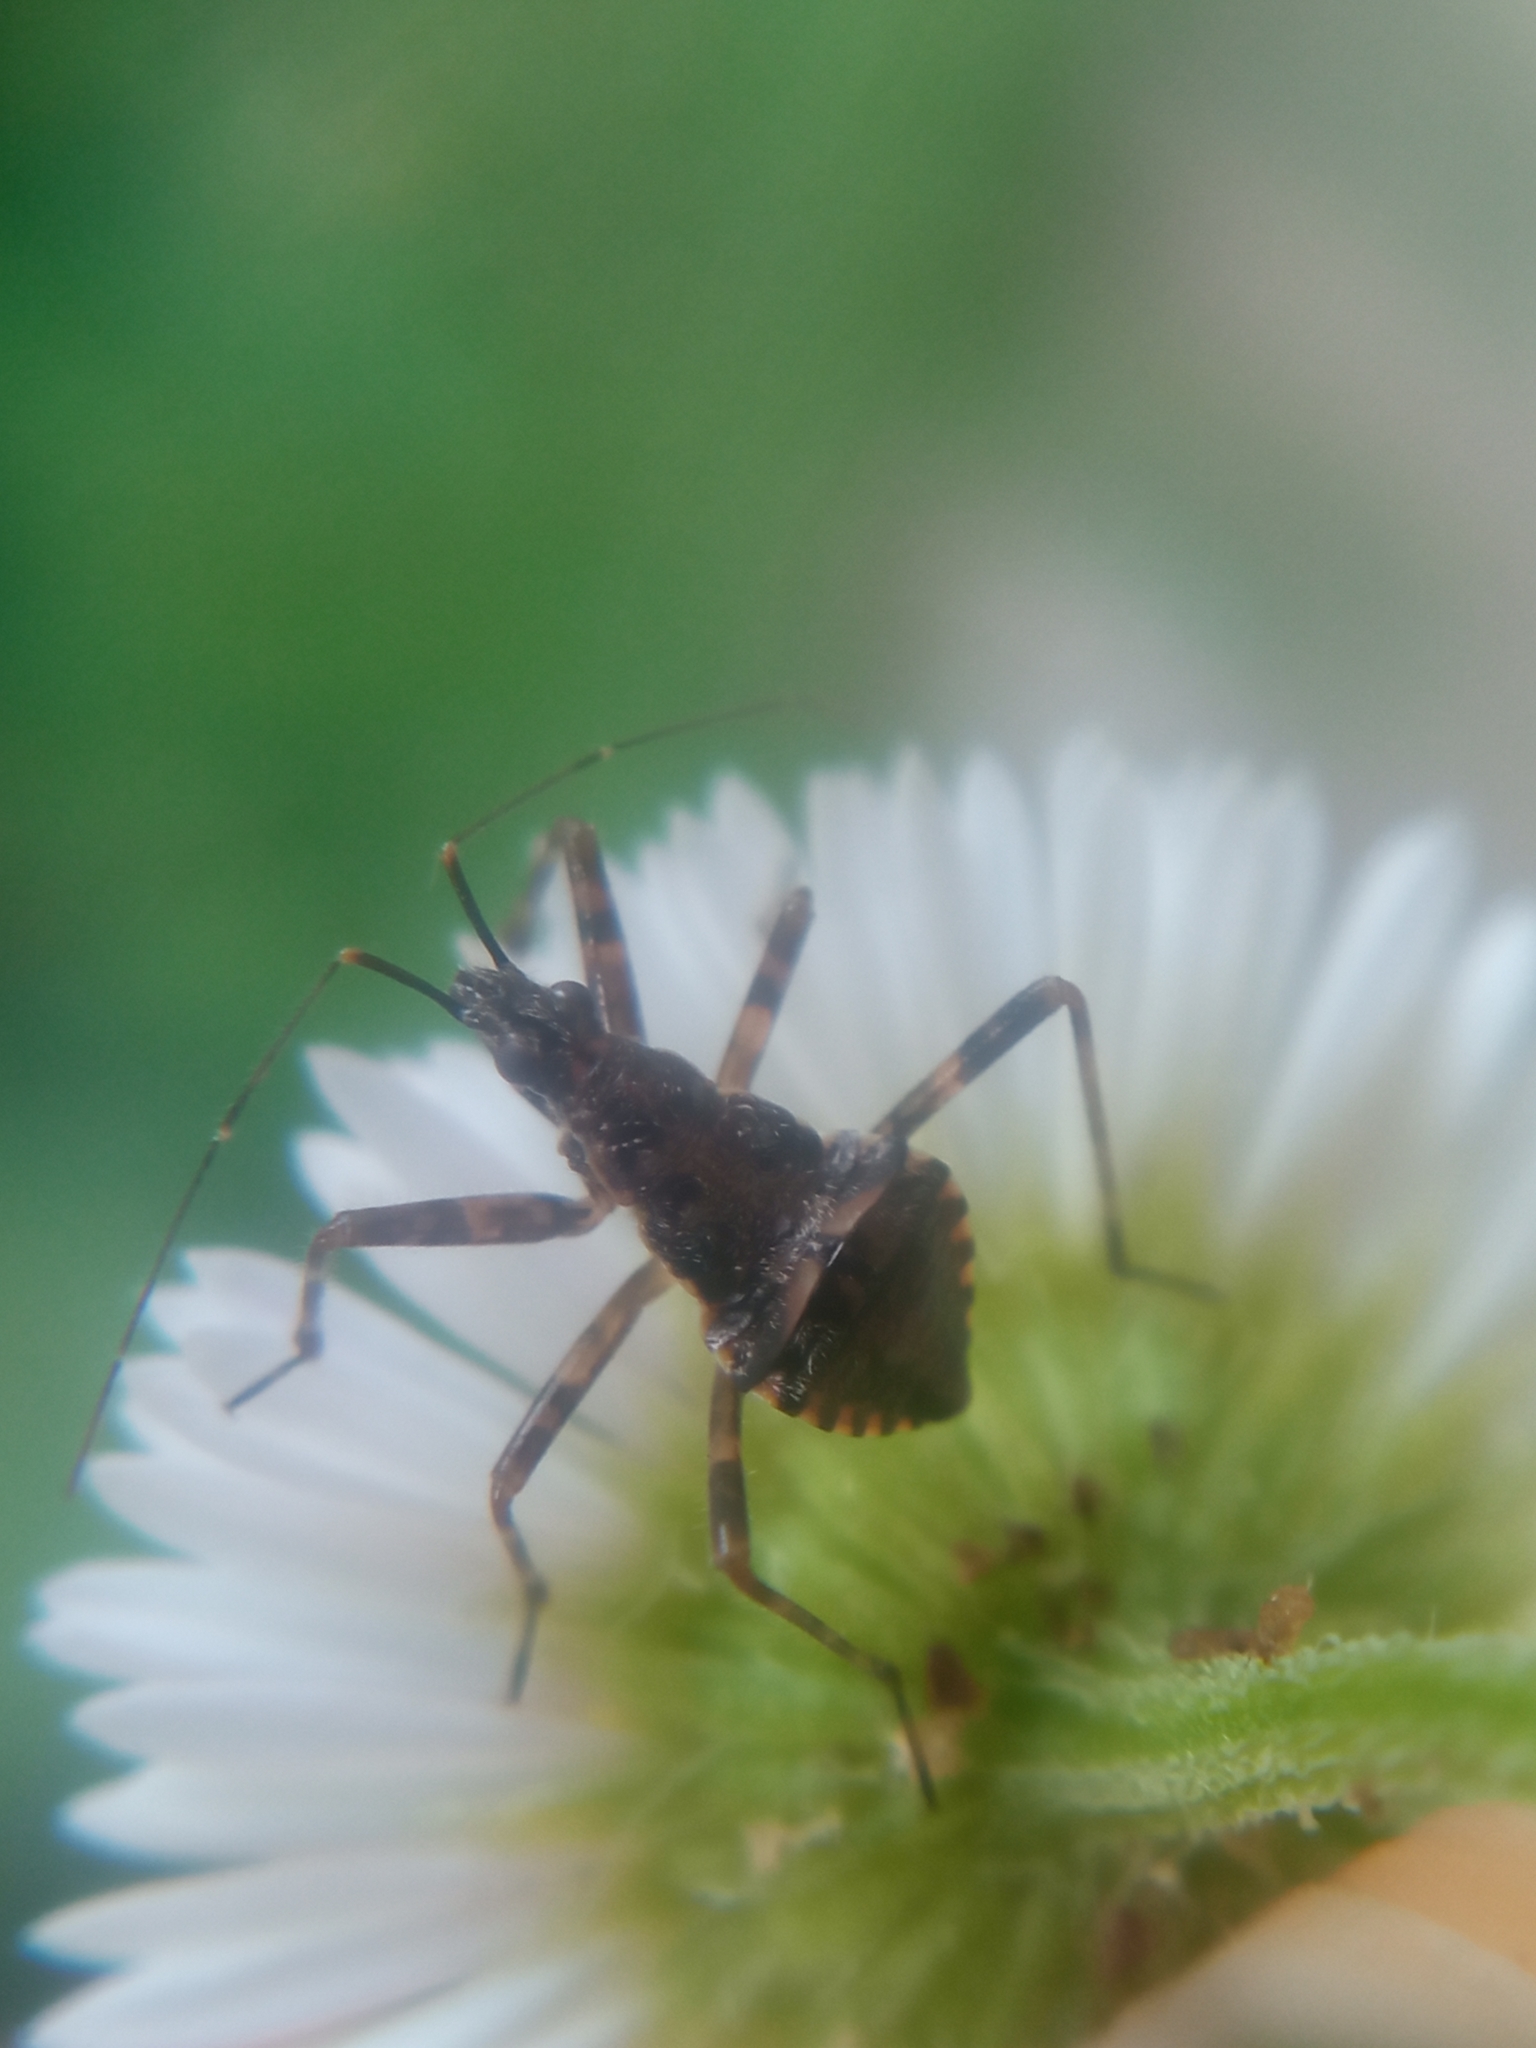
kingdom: Animalia
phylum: Arthropoda
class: Insecta
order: Hemiptera
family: Nabidae
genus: Himacerus
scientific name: Himacerus apterus
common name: Tree damsel bug
